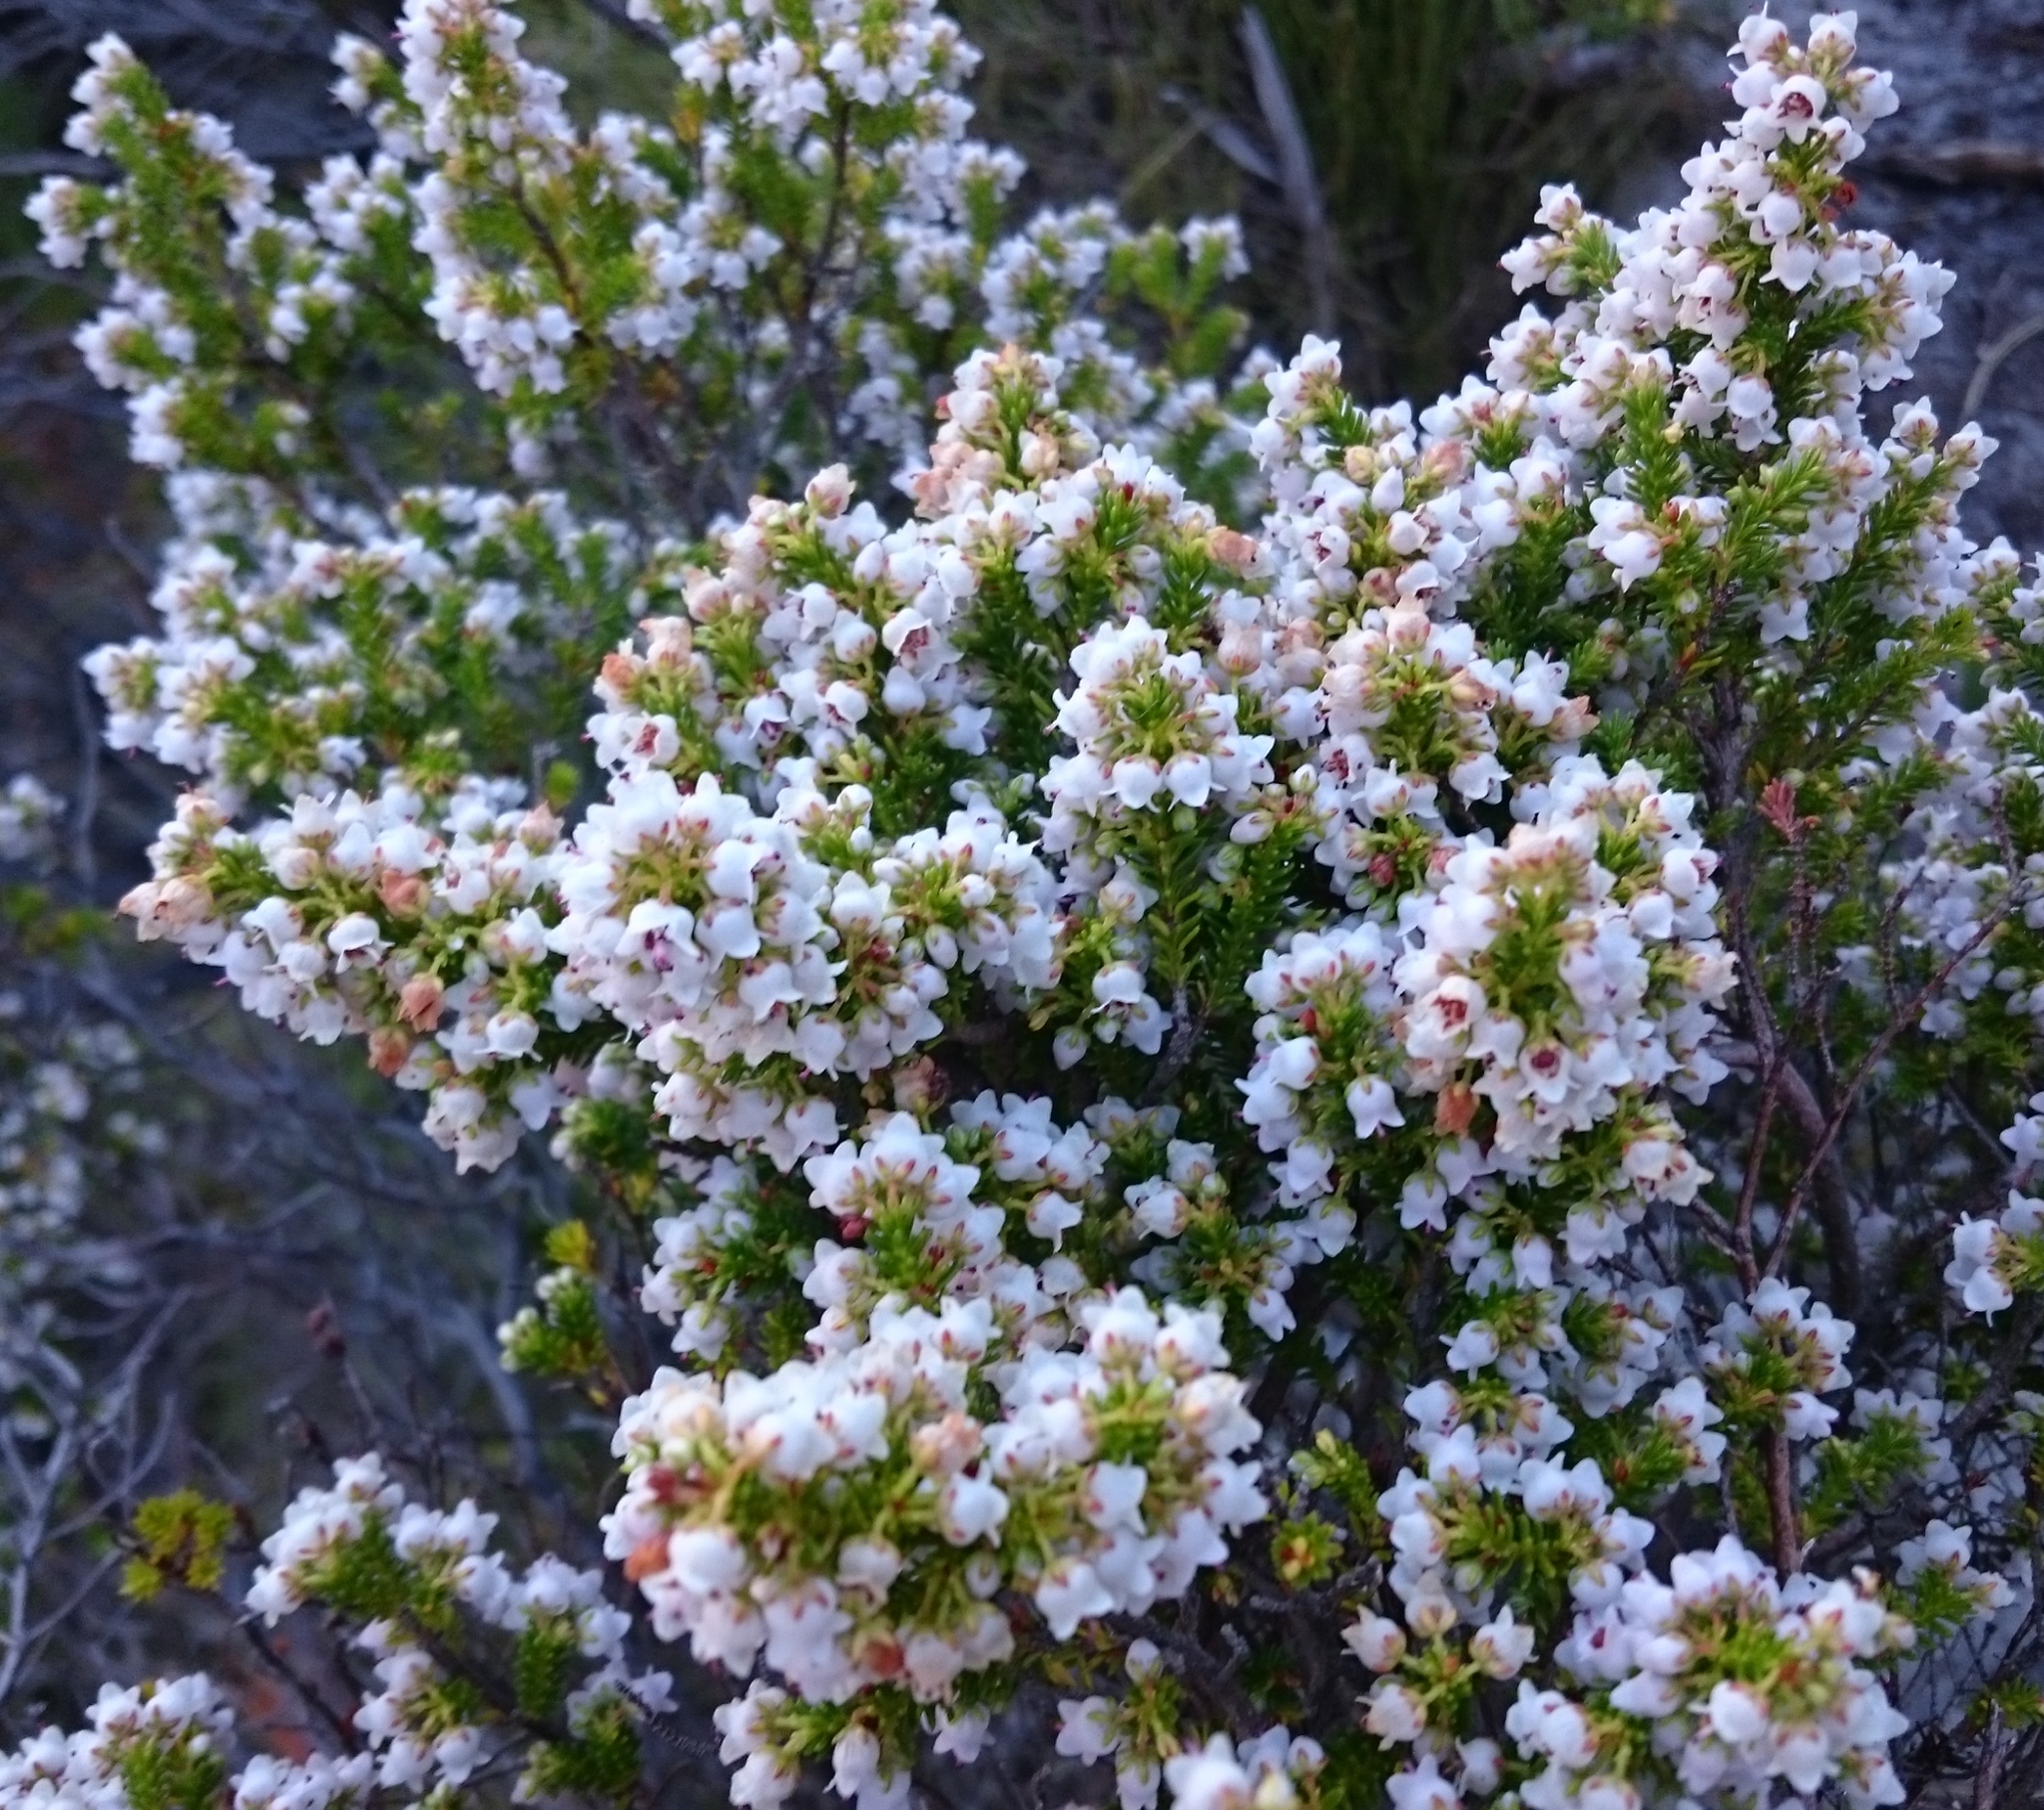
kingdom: Plantae
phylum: Tracheophyta
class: Magnoliopsida
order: Ericales
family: Ericaceae
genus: Erica
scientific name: Erica curvirostris
